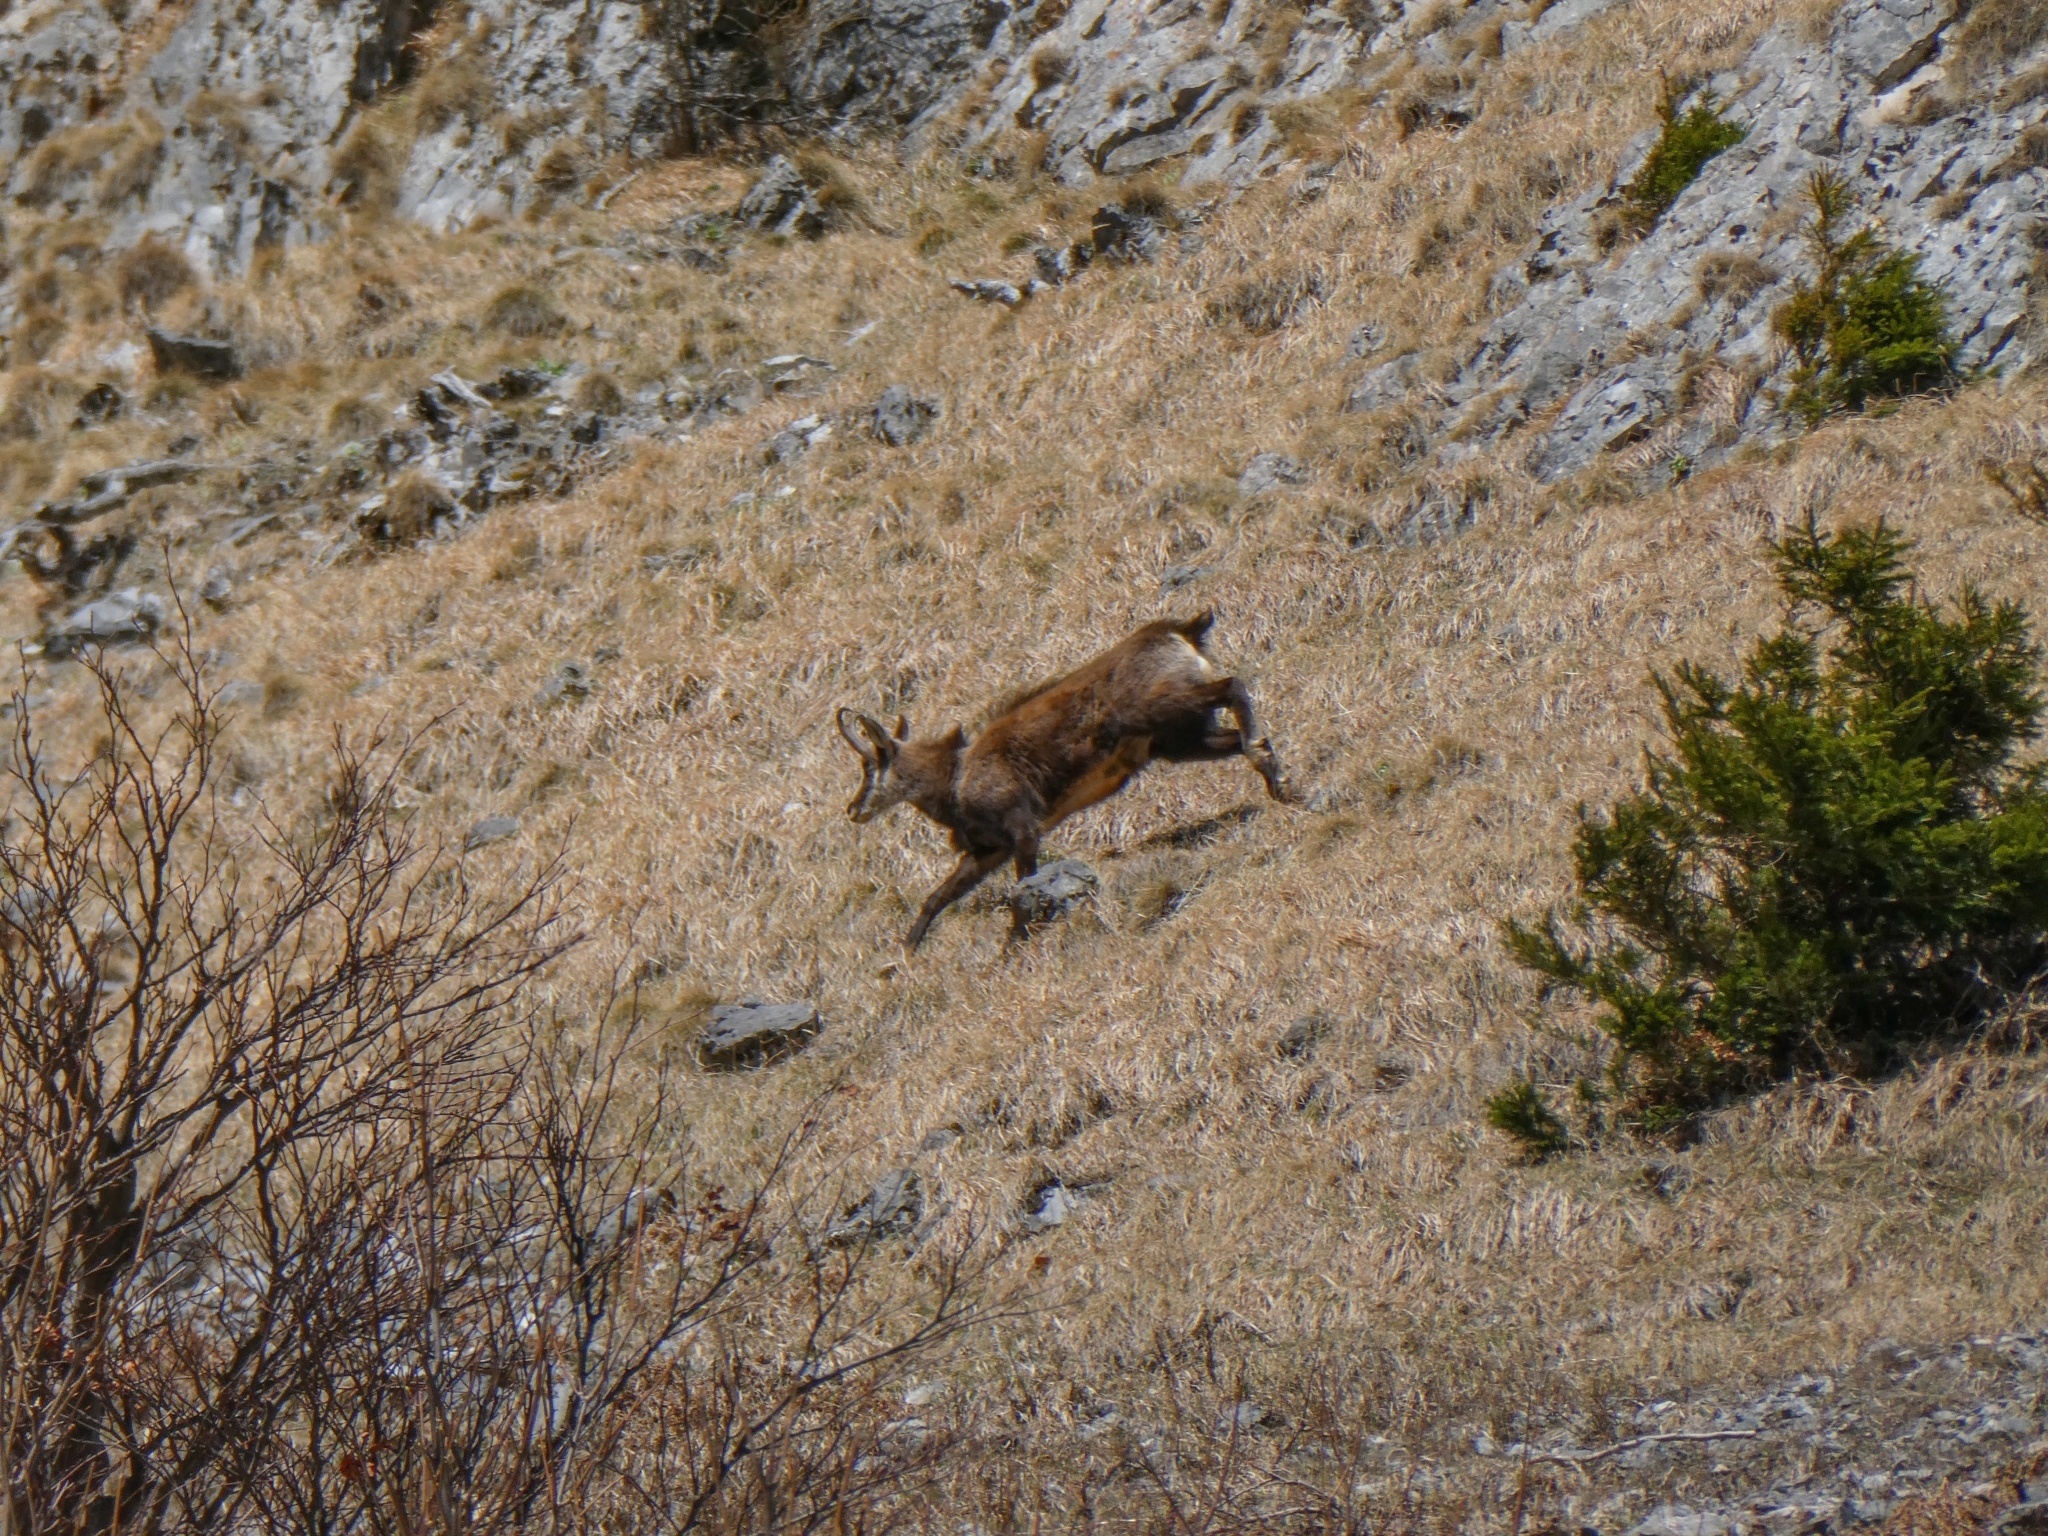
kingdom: Animalia
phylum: Chordata
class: Mammalia
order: Artiodactyla
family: Bovidae
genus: Rupicapra
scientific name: Rupicapra rupicapra
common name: Chamois
